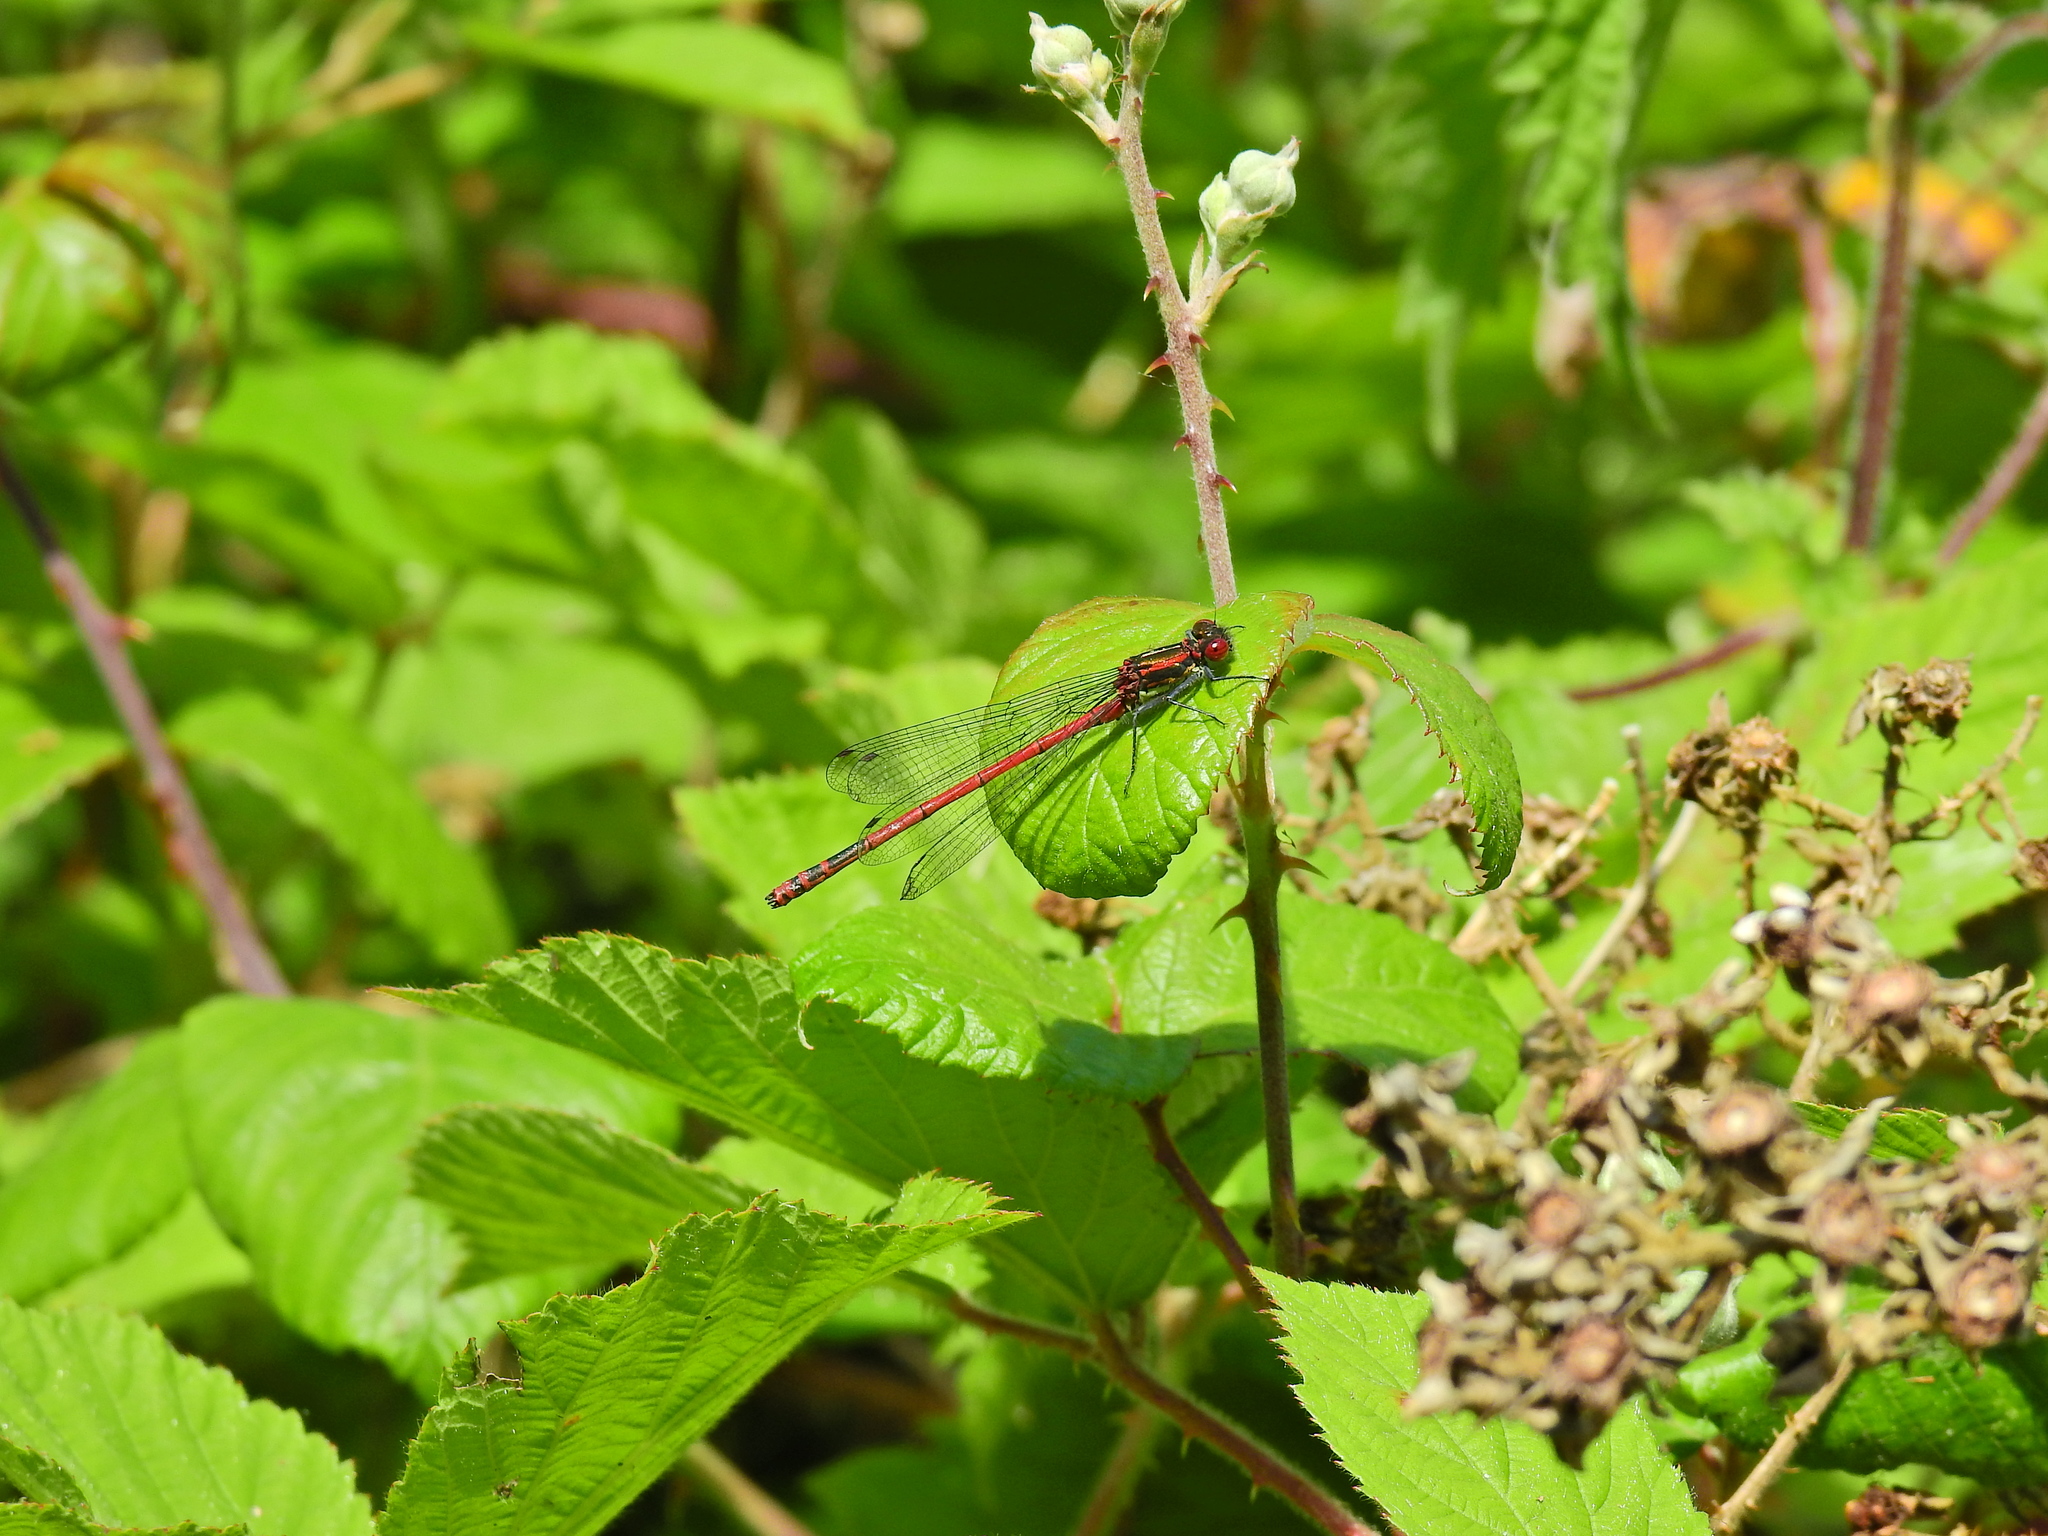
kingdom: Animalia
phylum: Arthropoda
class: Insecta
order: Odonata
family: Coenagrionidae
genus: Pyrrhosoma
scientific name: Pyrrhosoma nymphula
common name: Large red damsel
